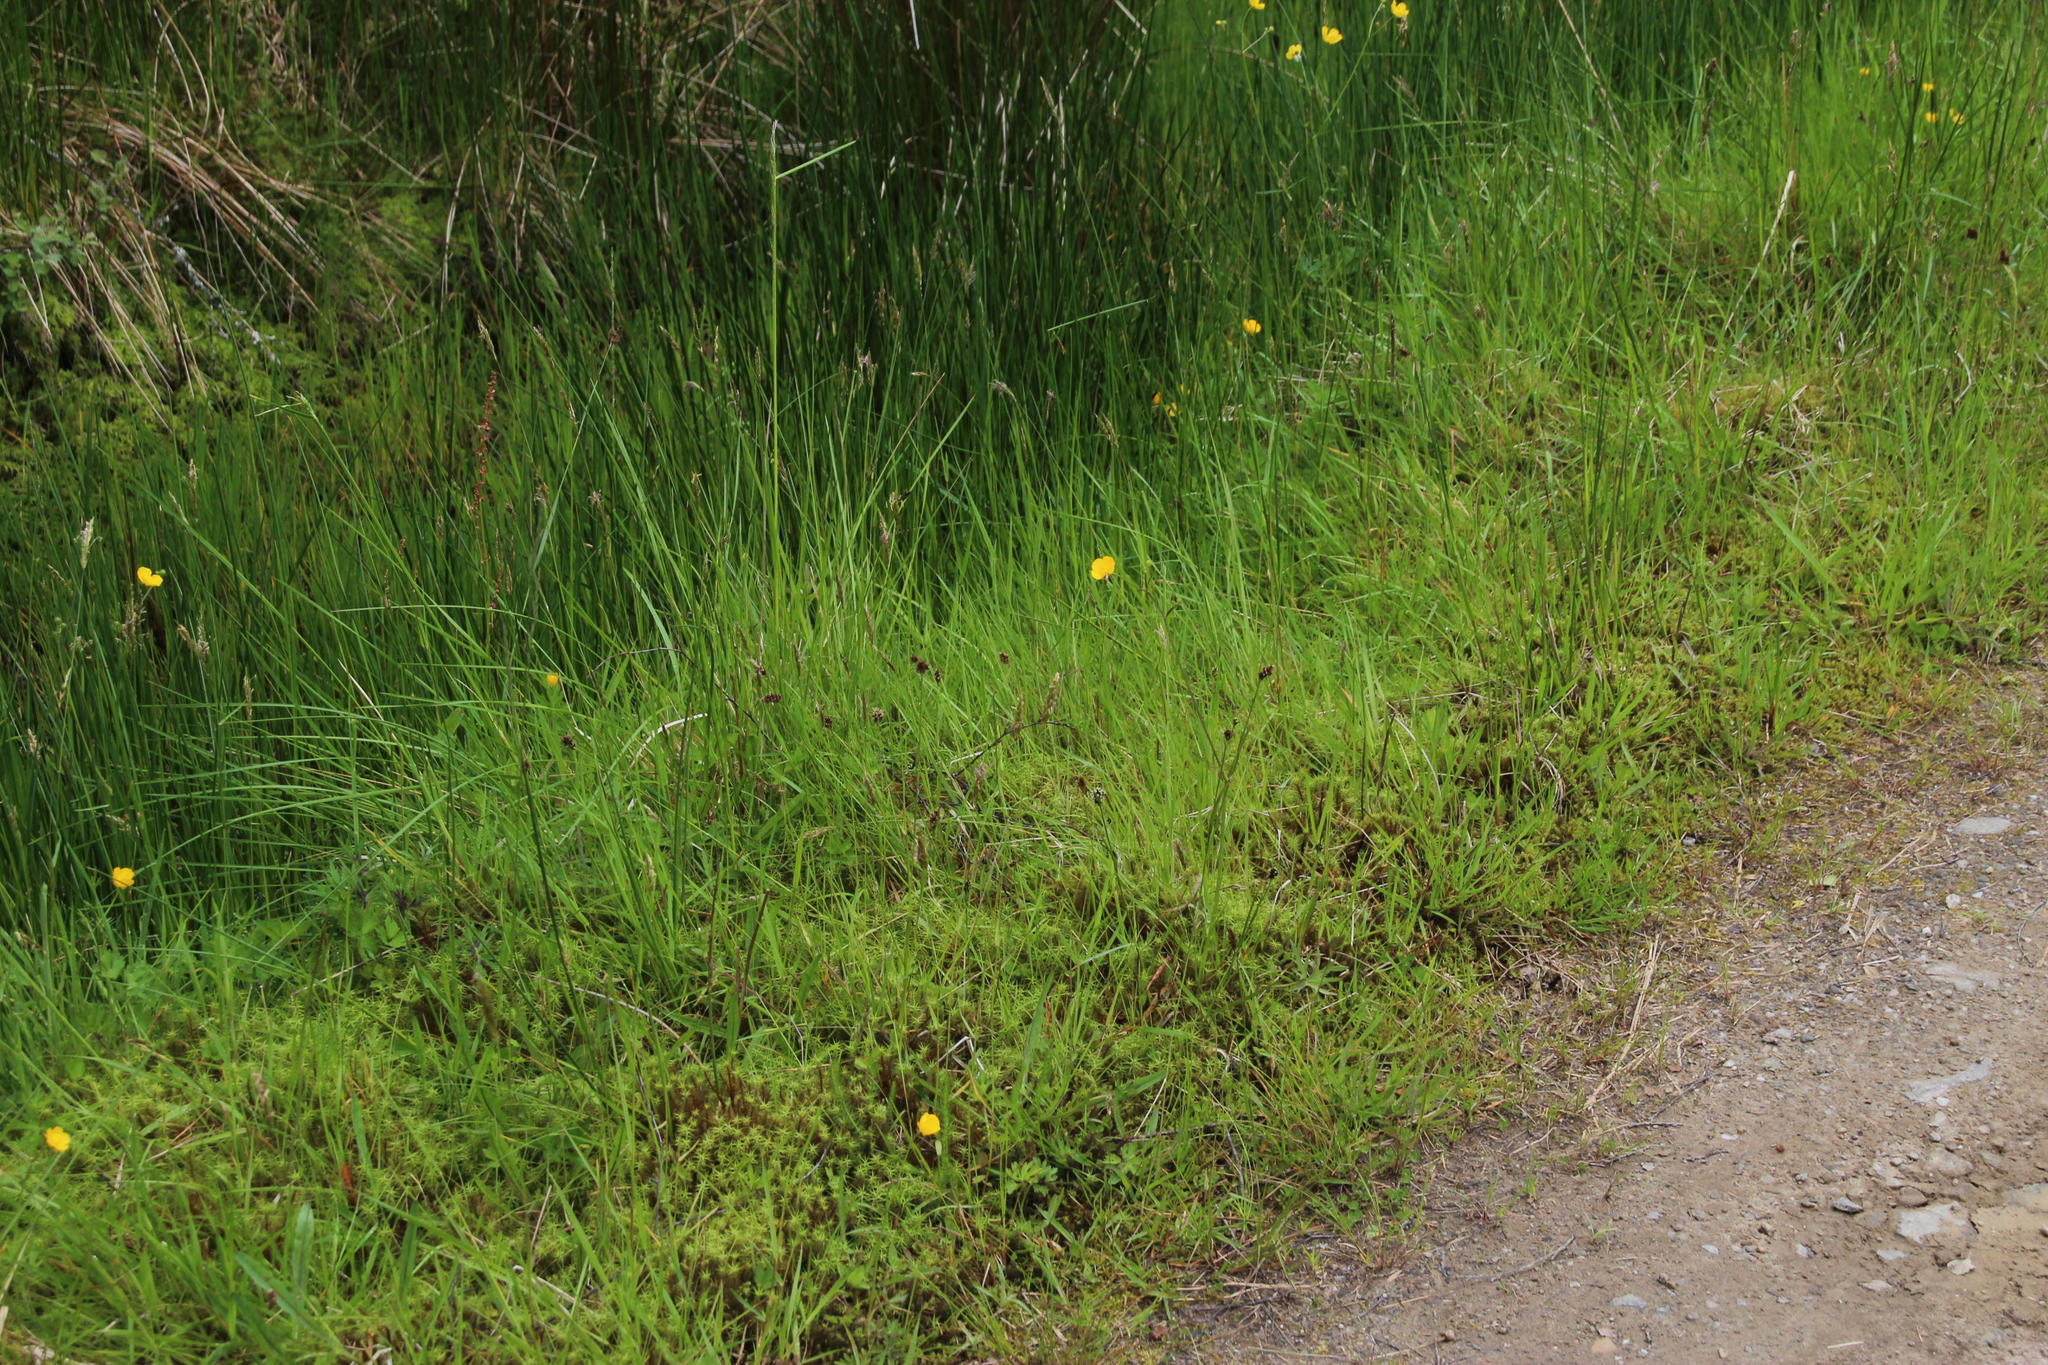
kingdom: Plantae
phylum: Tracheophyta
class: Liliopsida
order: Poales
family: Juncaceae
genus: Luzula
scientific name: Luzula multiflora
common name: Heath wood-rush
